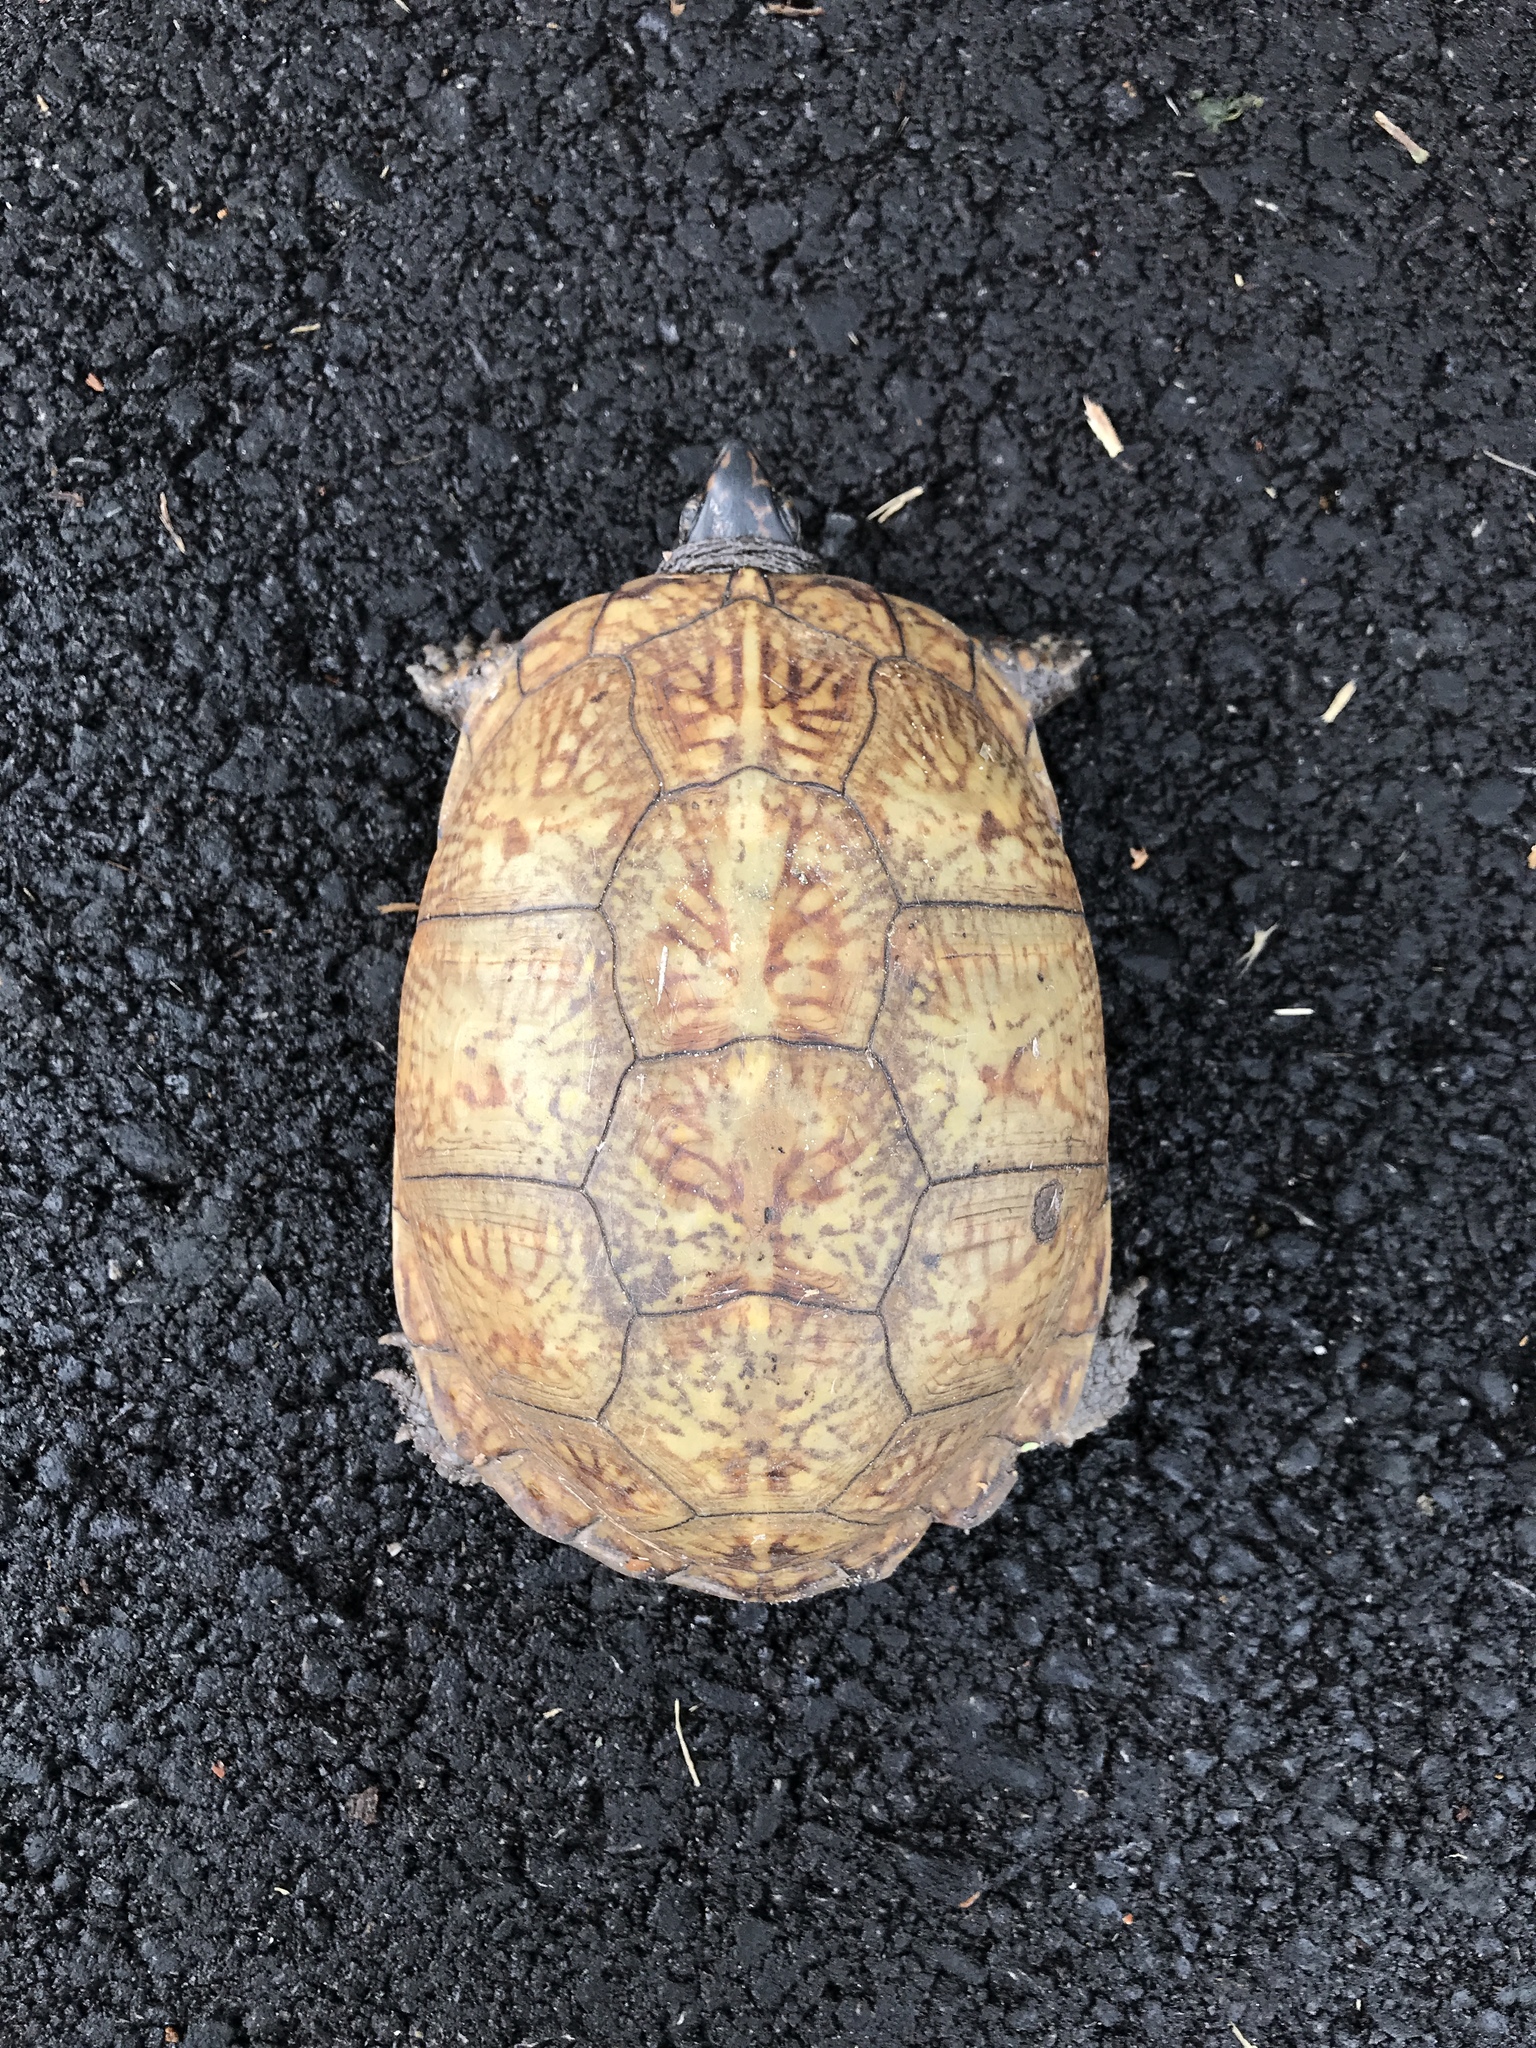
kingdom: Animalia
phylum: Chordata
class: Testudines
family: Emydidae
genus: Terrapene
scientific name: Terrapene carolina
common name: Common box turtle
